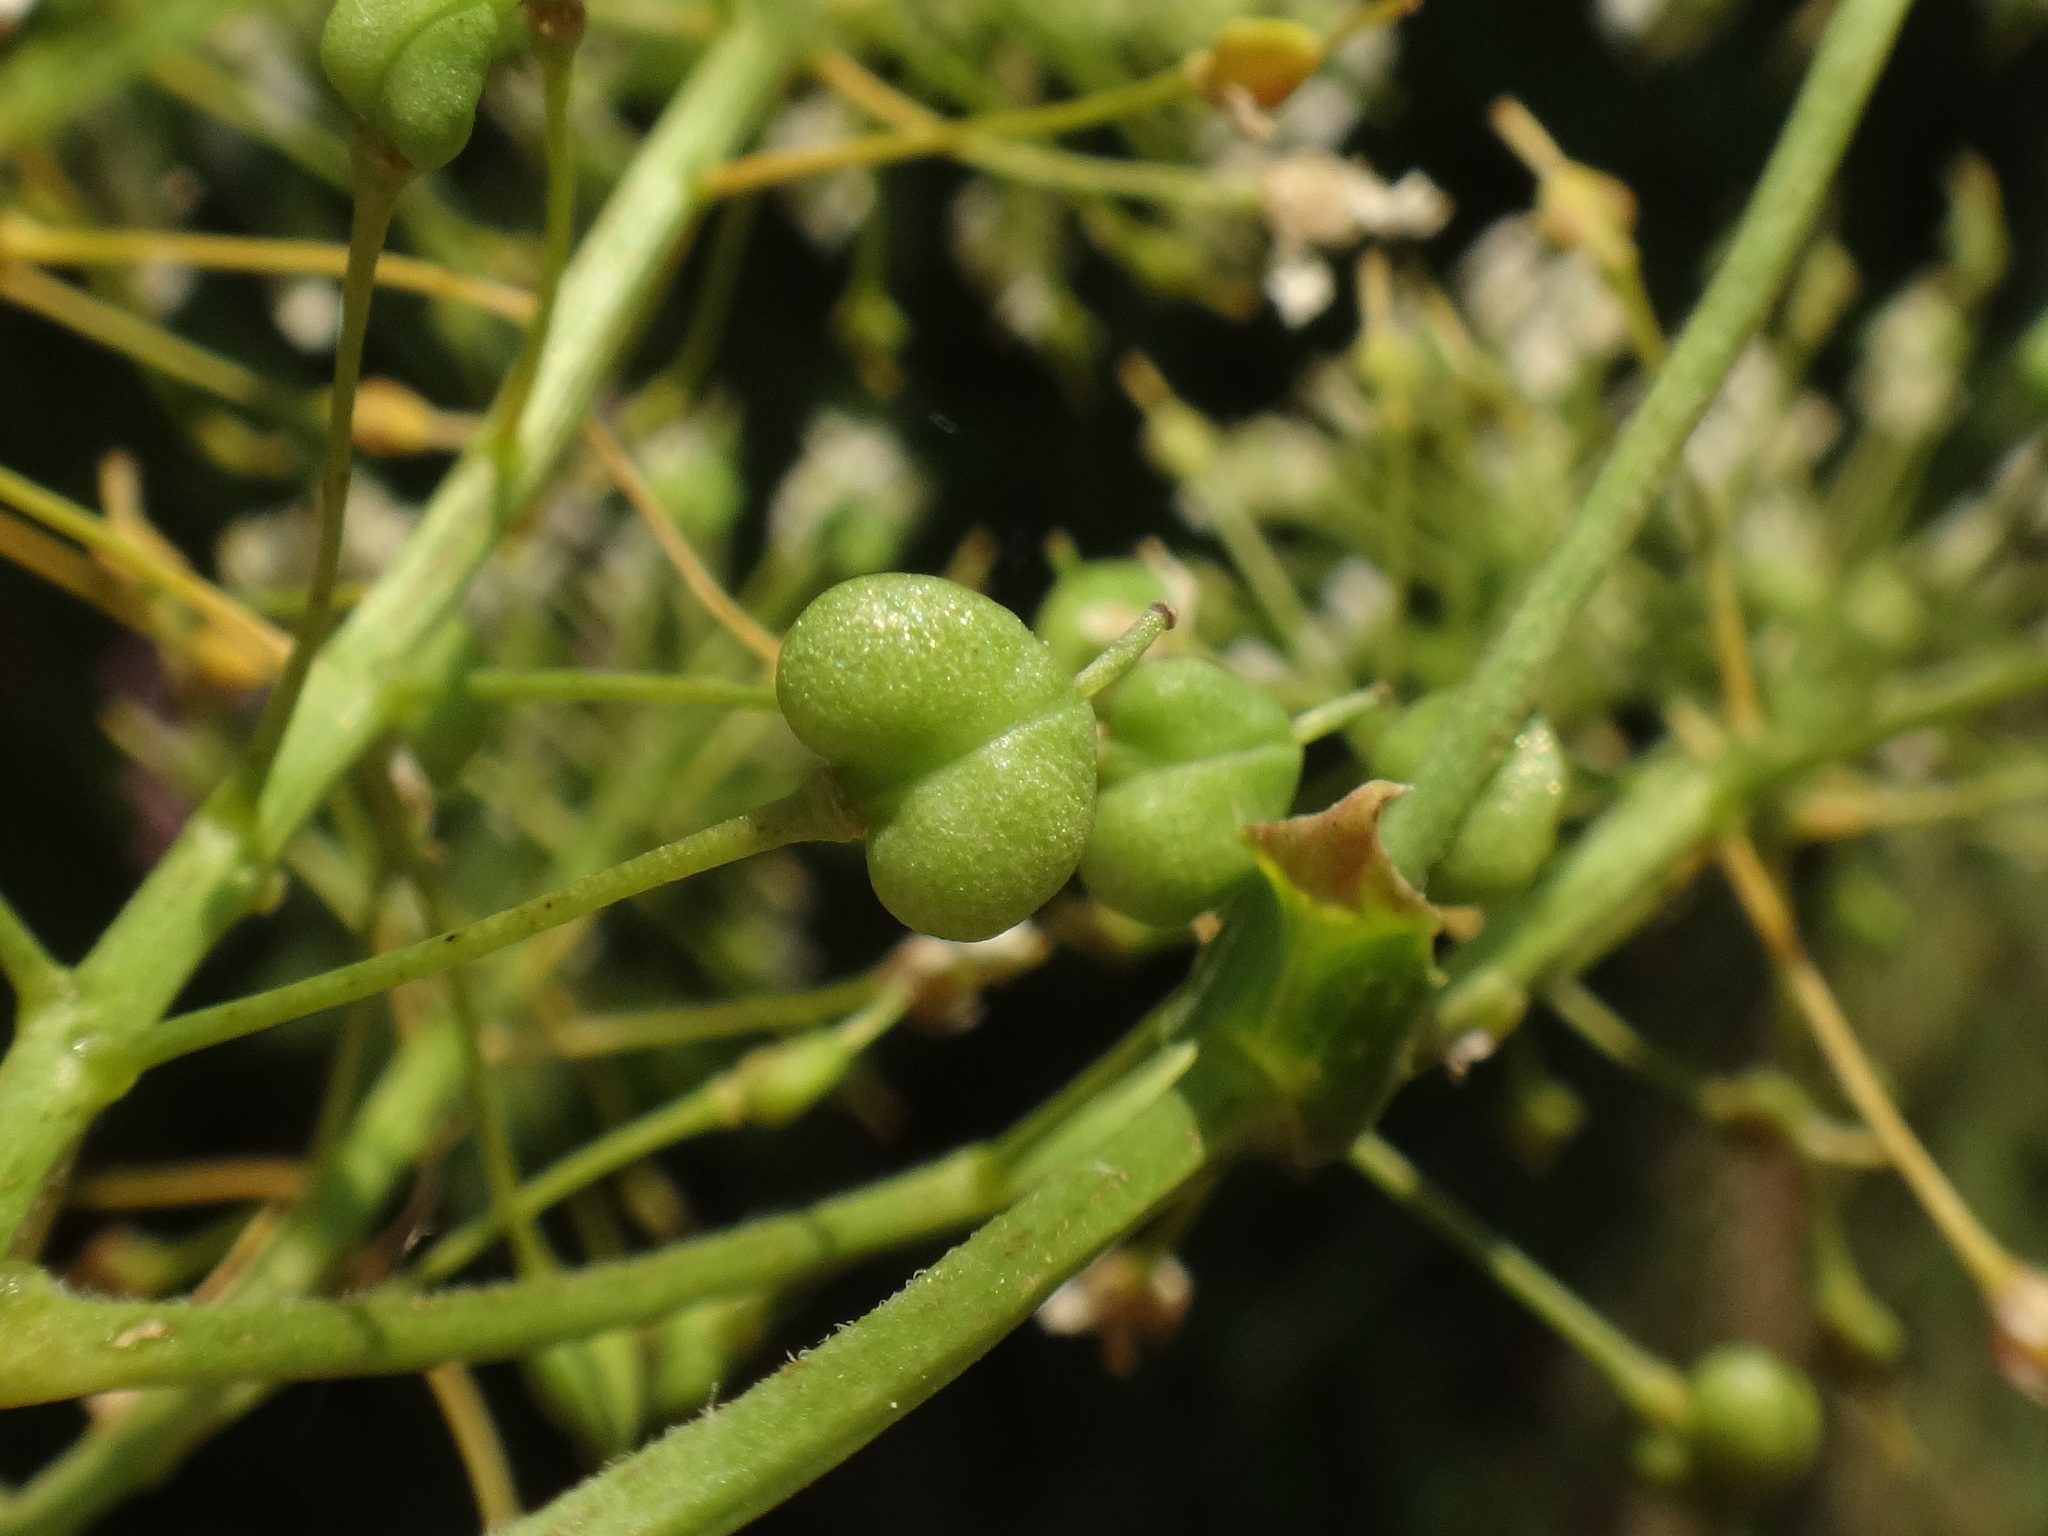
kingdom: Plantae
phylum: Tracheophyta
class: Magnoliopsida
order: Brassicales
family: Brassicaceae
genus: Lepidium
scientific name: Lepidium draba
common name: Hoary cress
